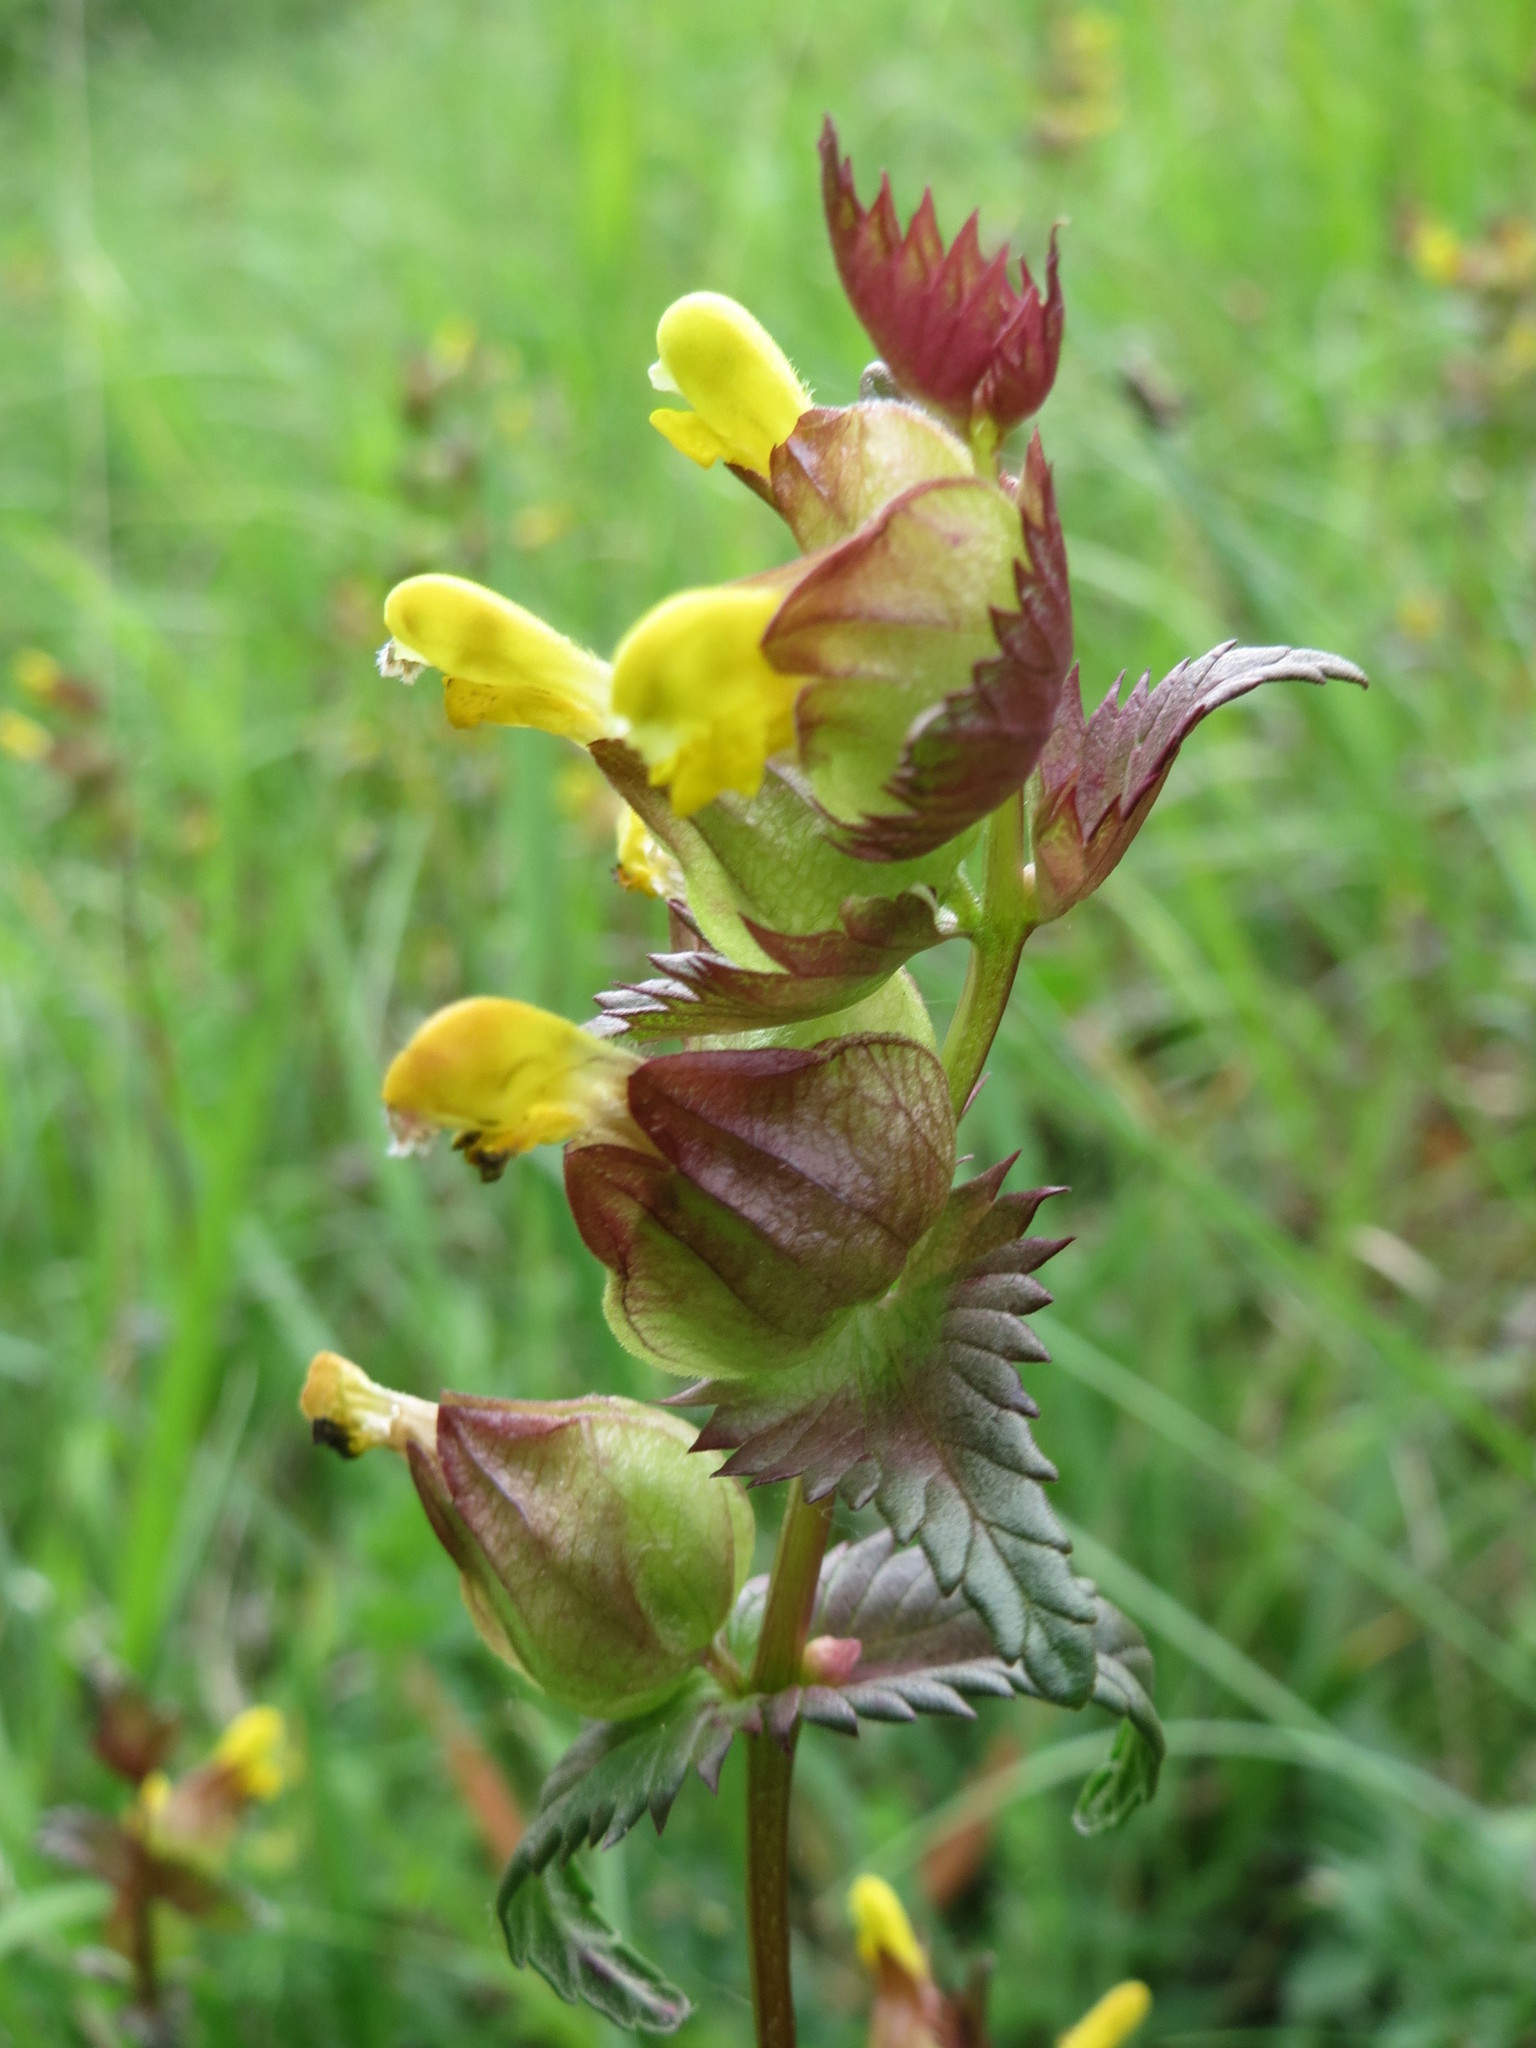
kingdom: Plantae
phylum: Tracheophyta
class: Magnoliopsida
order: Lamiales
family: Orobanchaceae
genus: Rhinanthus
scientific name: Rhinanthus minor
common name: Yellow-rattle
